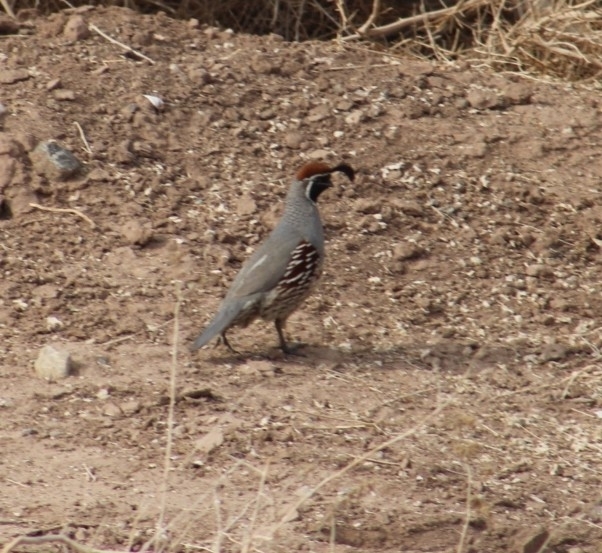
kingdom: Animalia
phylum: Chordata
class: Aves
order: Galliformes
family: Odontophoridae
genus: Callipepla
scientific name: Callipepla gambelii
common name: Gambel's quail
